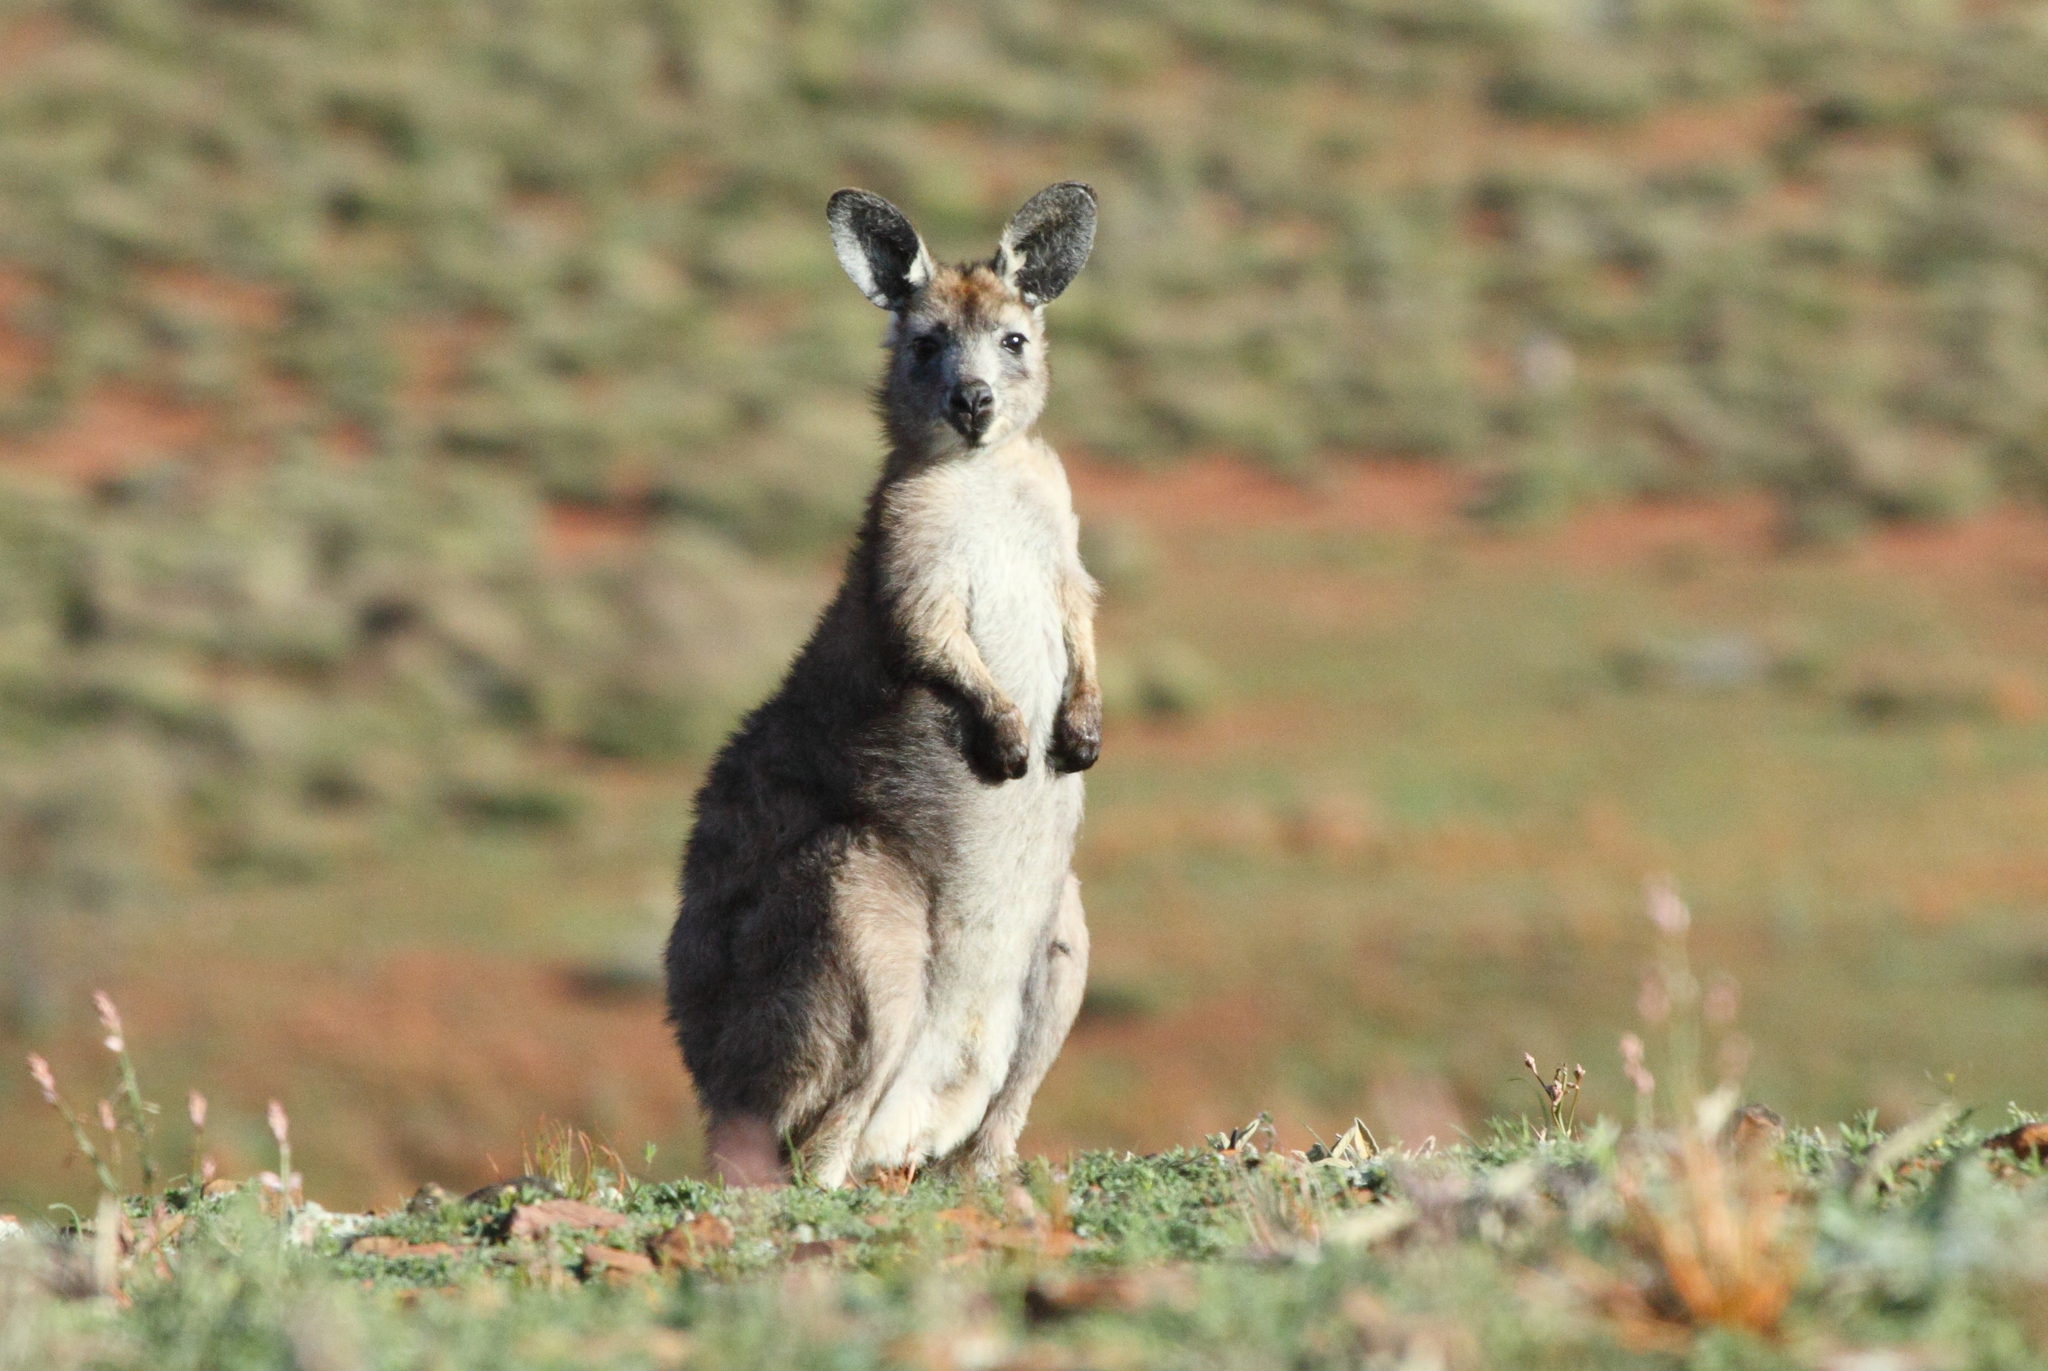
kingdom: Animalia
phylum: Chordata
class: Mammalia
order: Diprotodontia
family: Macropodidae
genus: Macropus
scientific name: Macropus robustus
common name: Eastern wallaroo
